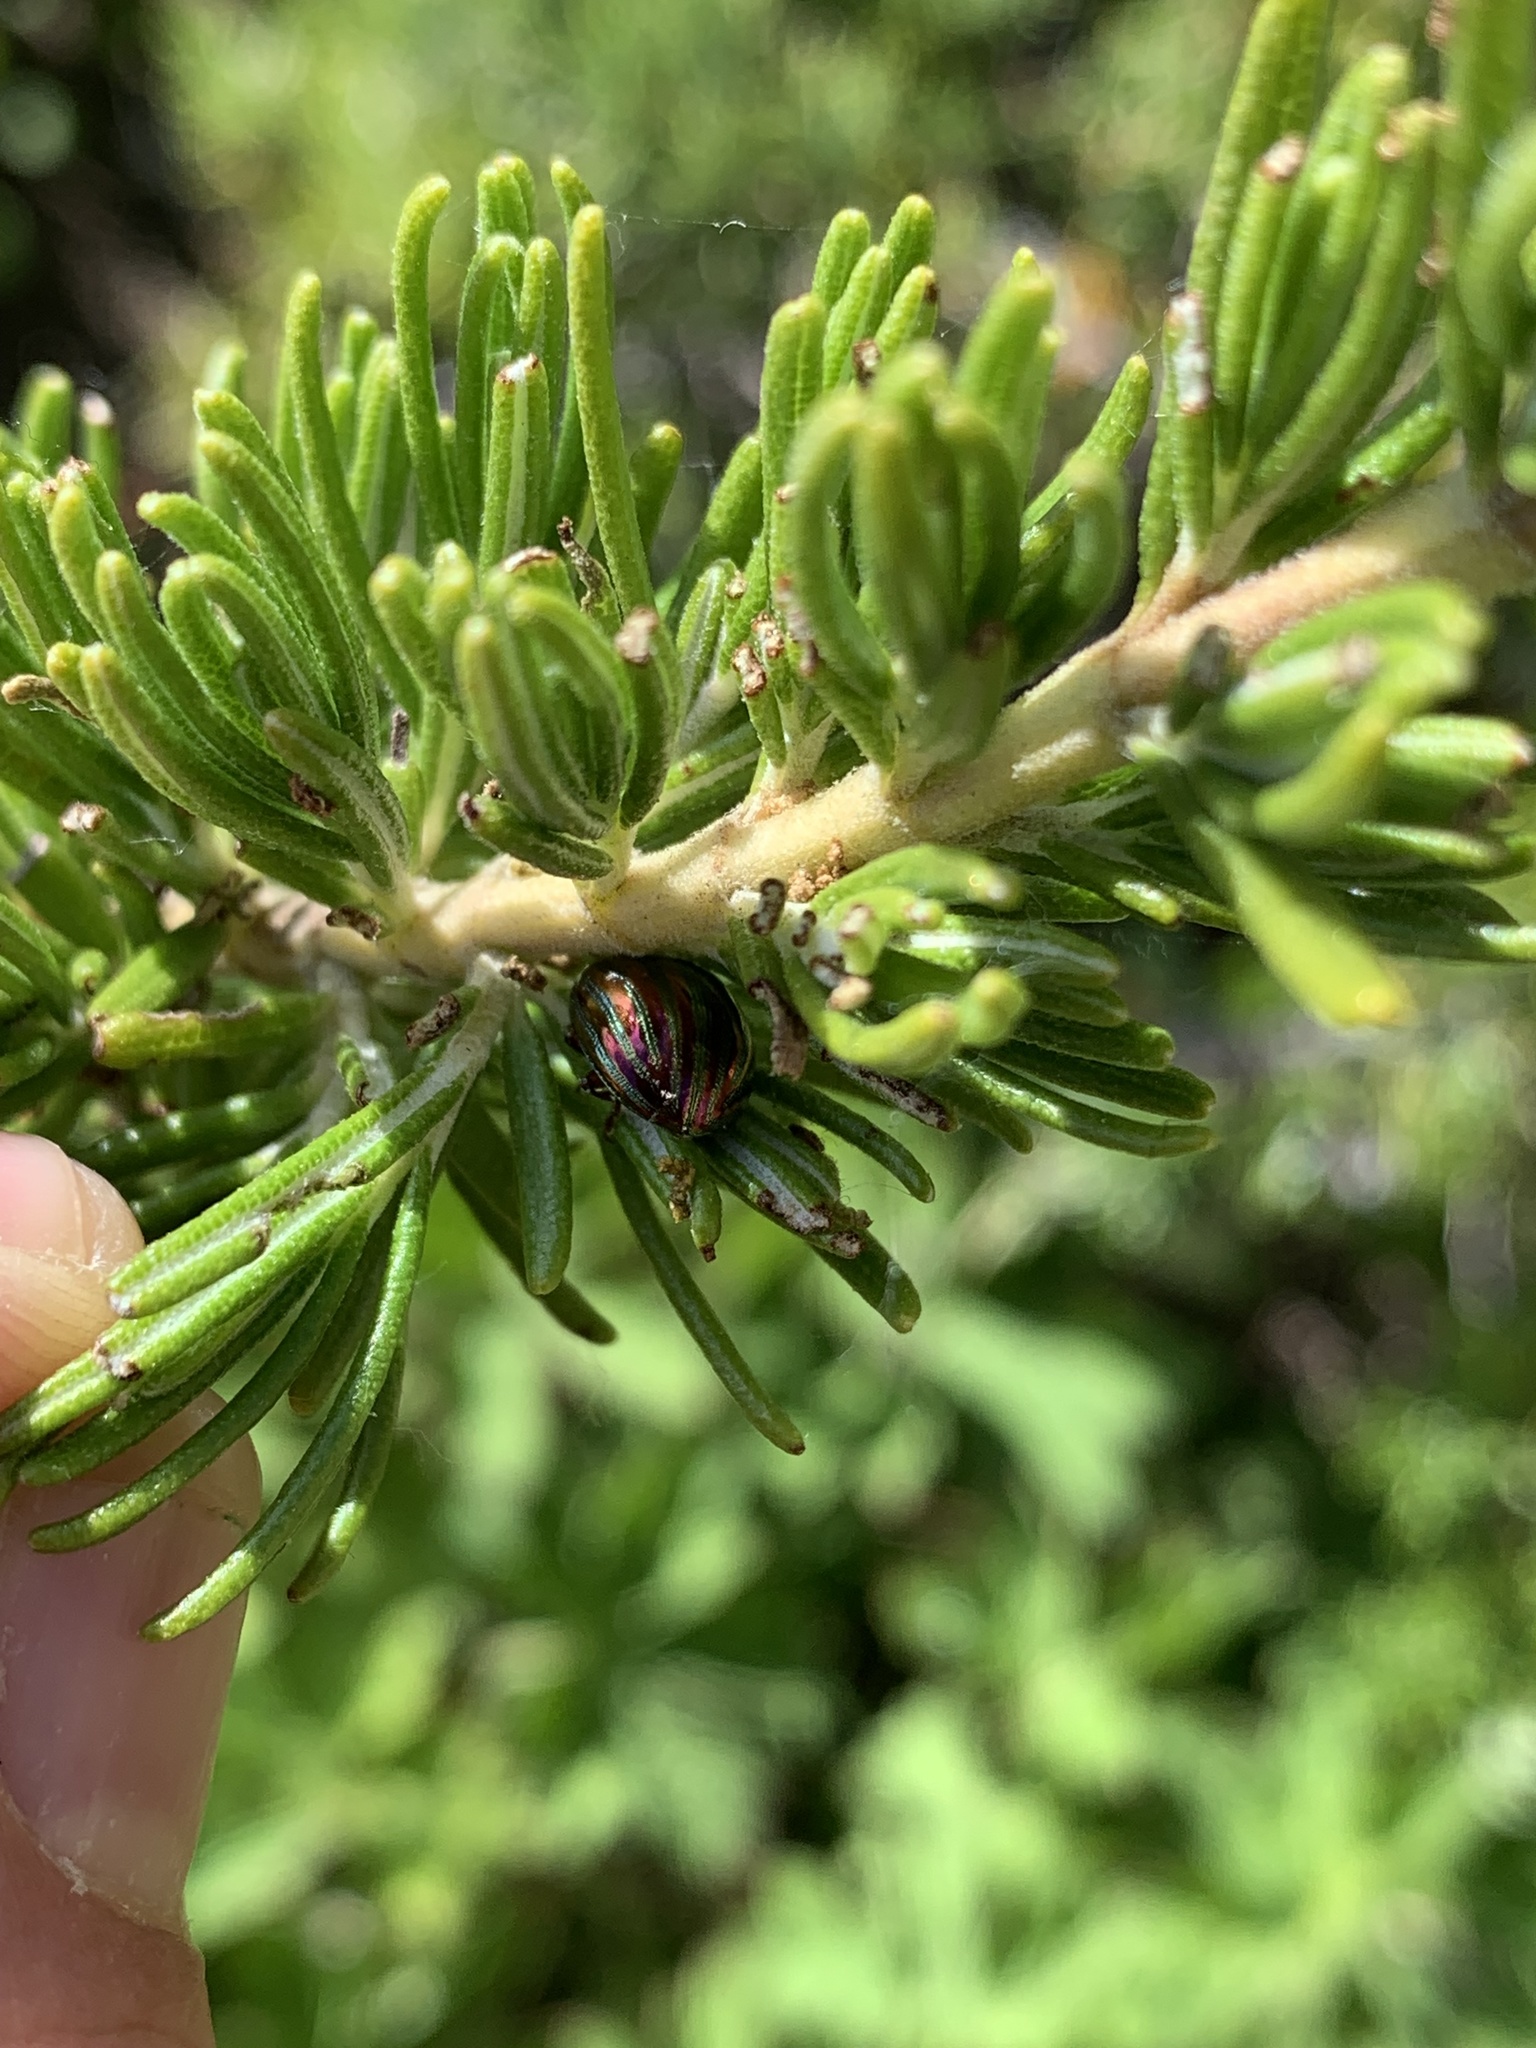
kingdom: Animalia
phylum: Arthropoda
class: Insecta
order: Coleoptera
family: Chrysomelidae
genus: Chrysolina
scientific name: Chrysolina americana
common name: Rosemary beetle
